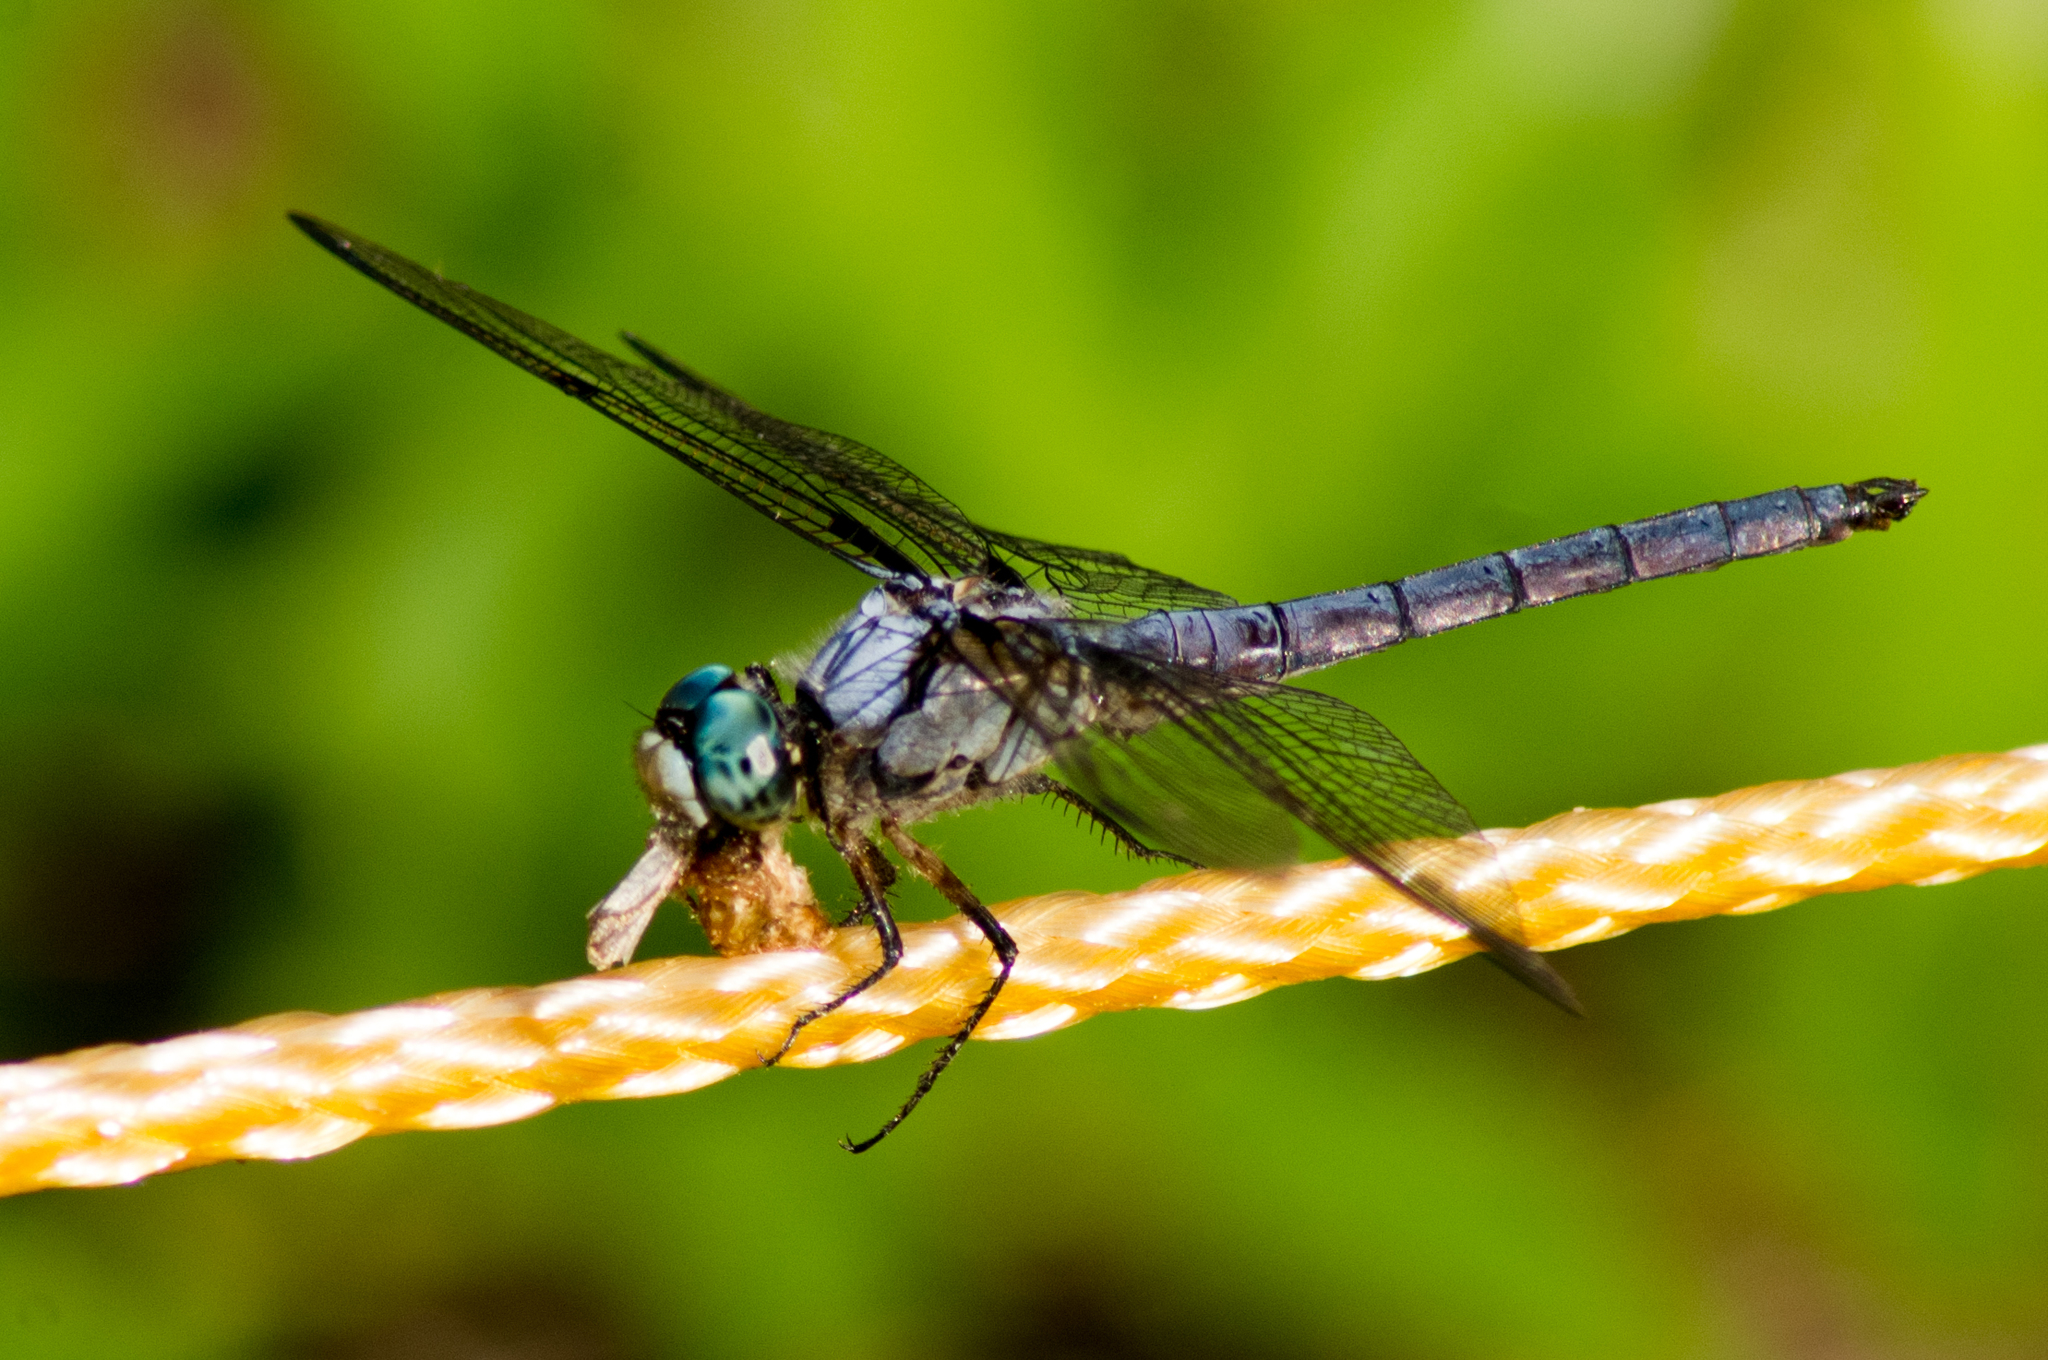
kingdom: Animalia
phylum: Arthropoda
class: Insecta
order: Odonata
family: Libellulidae
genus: Libellula
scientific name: Libellula vibrans
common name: Great blue skimmer
